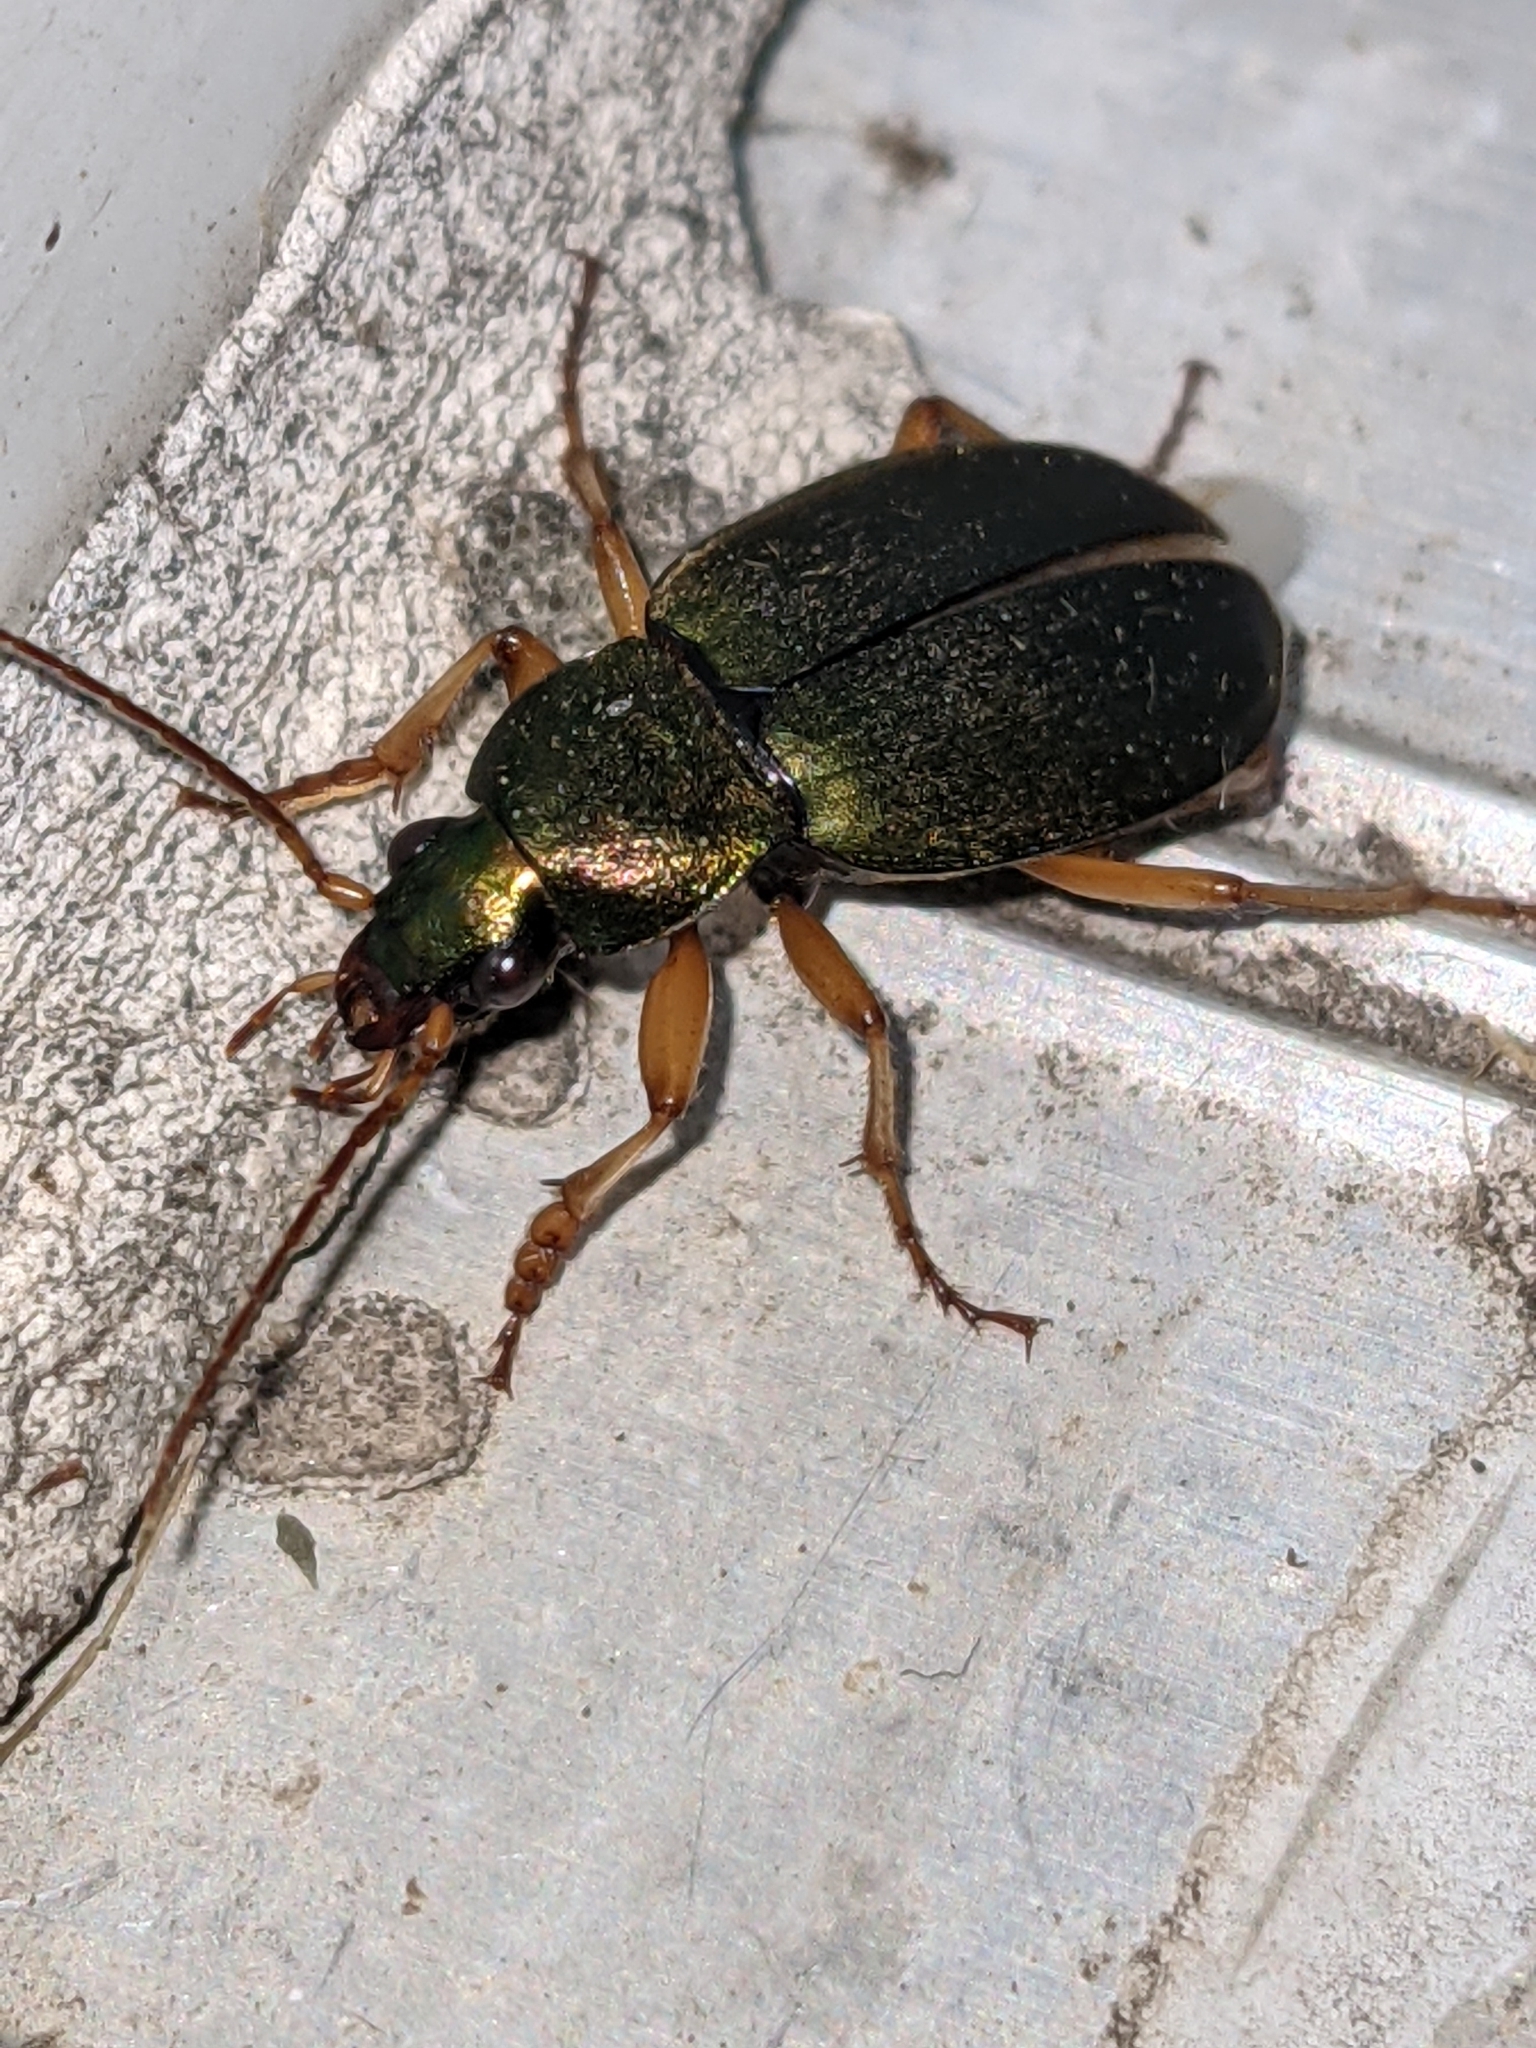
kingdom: Animalia
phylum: Arthropoda
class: Insecta
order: Coleoptera
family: Carabidae
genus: Chlaenius
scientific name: Chlaenius sericeus
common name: Green pubescent ground beetle
